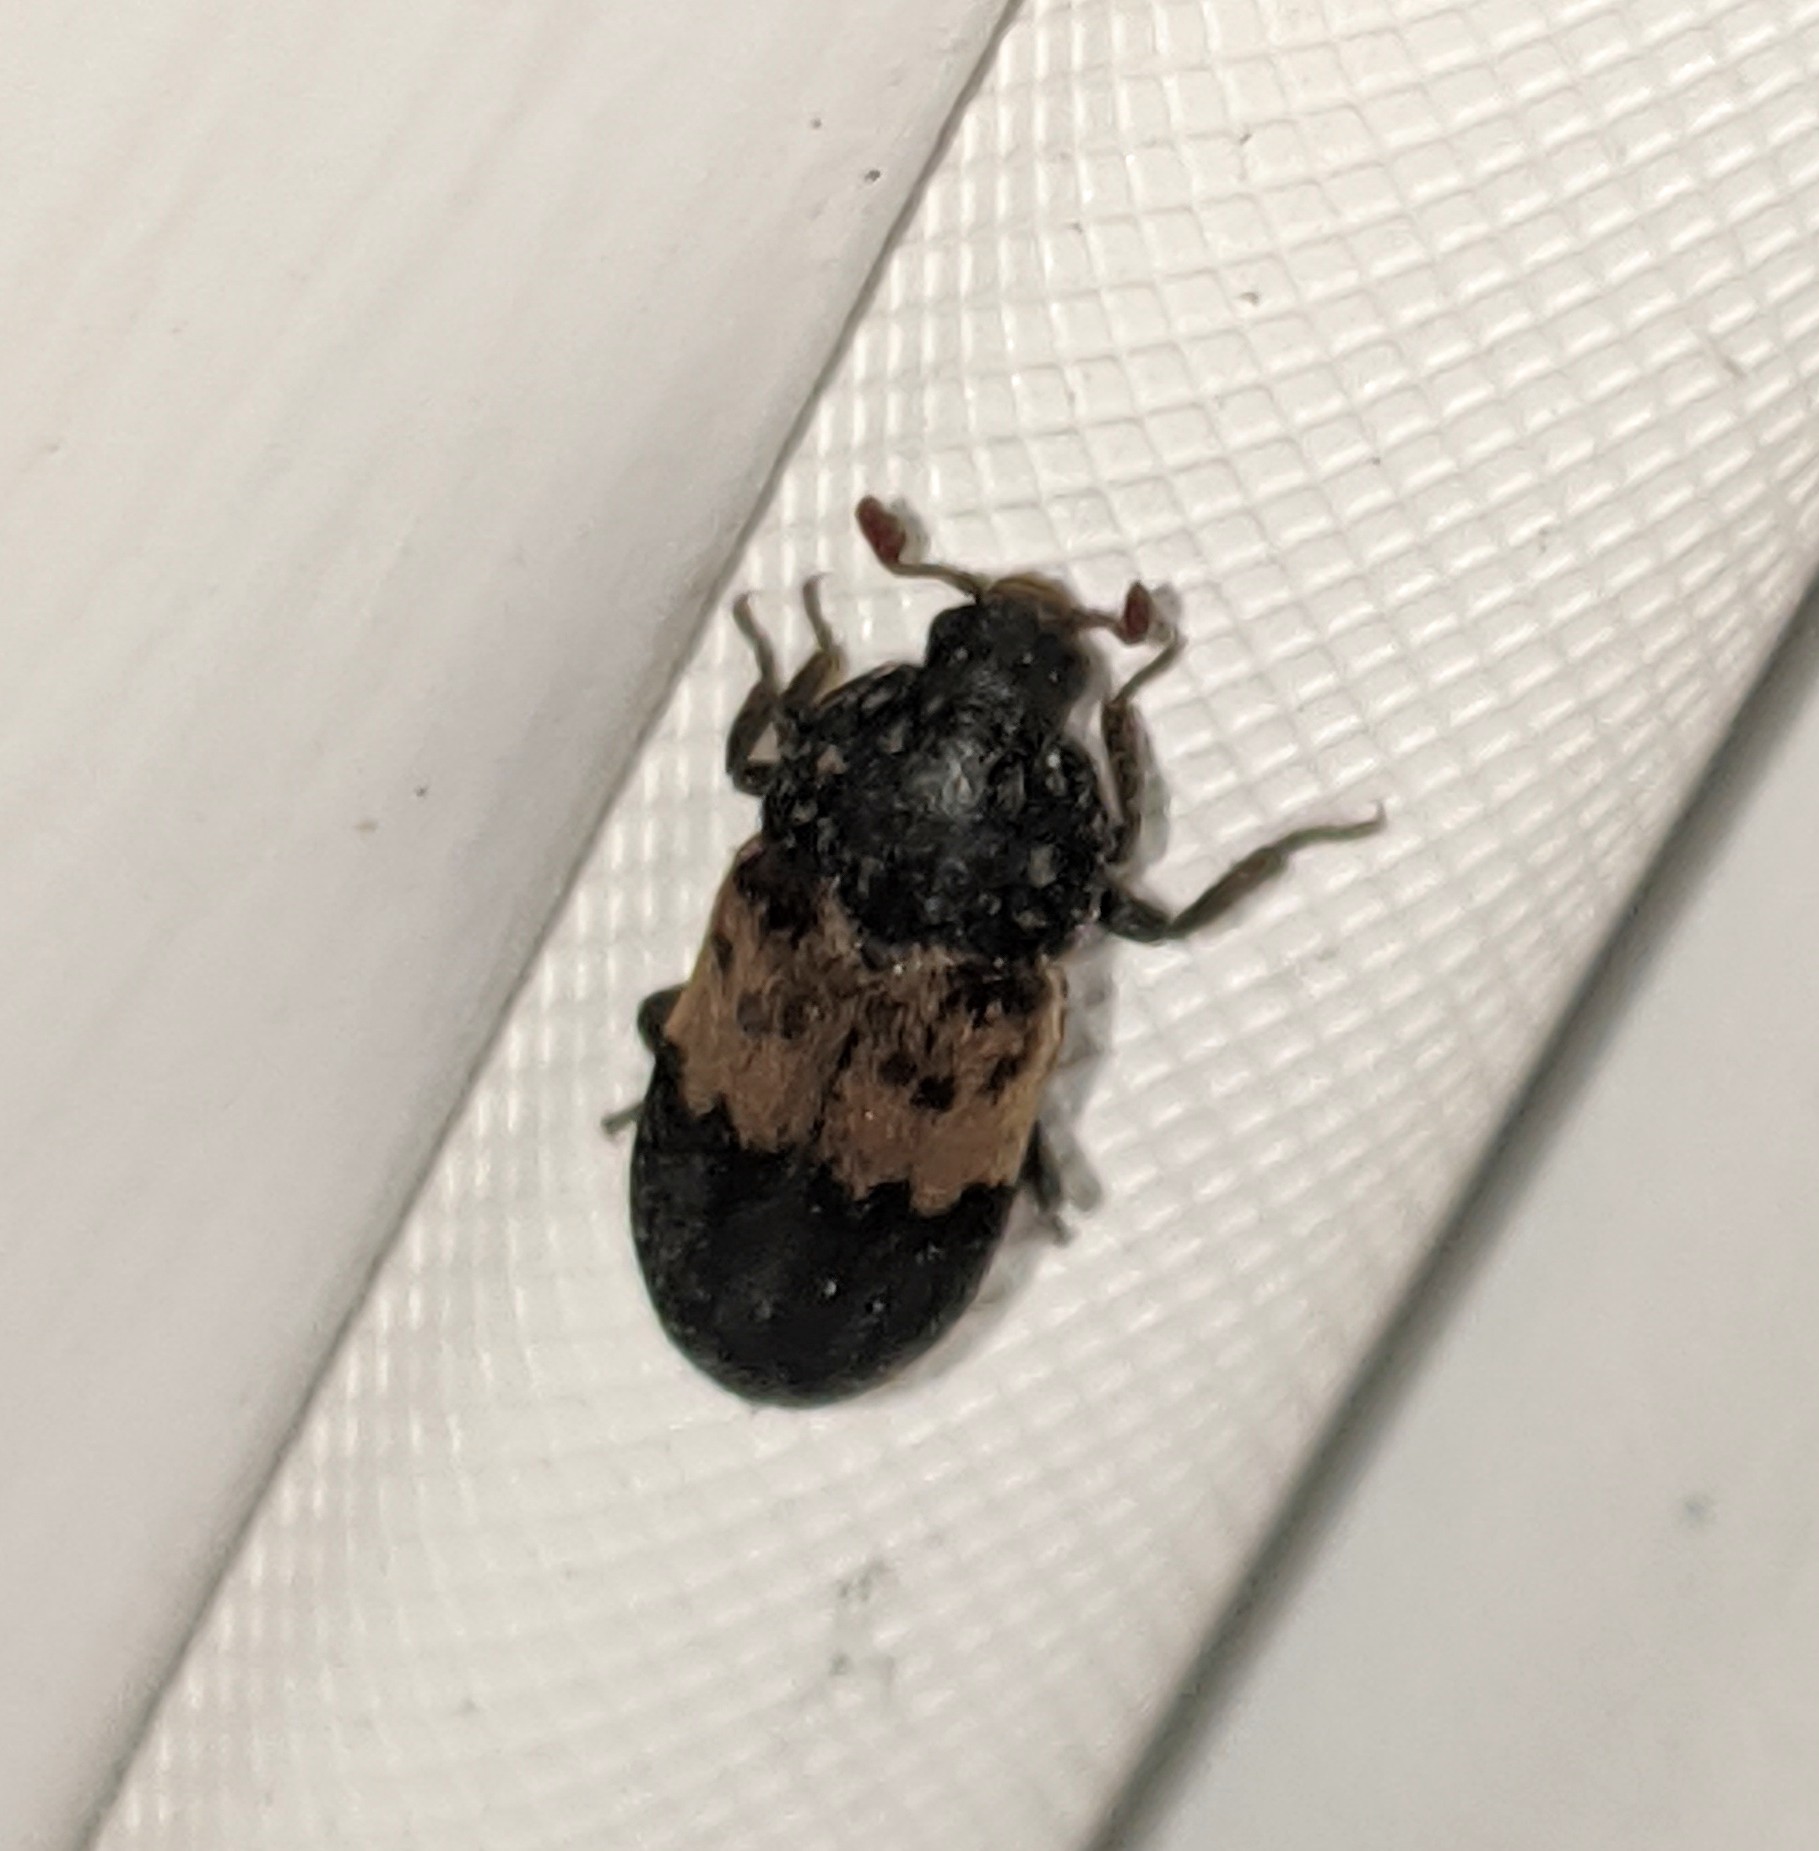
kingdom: Animalia
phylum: Arthropoda
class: Insecta
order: Coleoptera
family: Dermestidae
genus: Dermestes
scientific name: Dermestes lardarius
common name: Larder beetle
